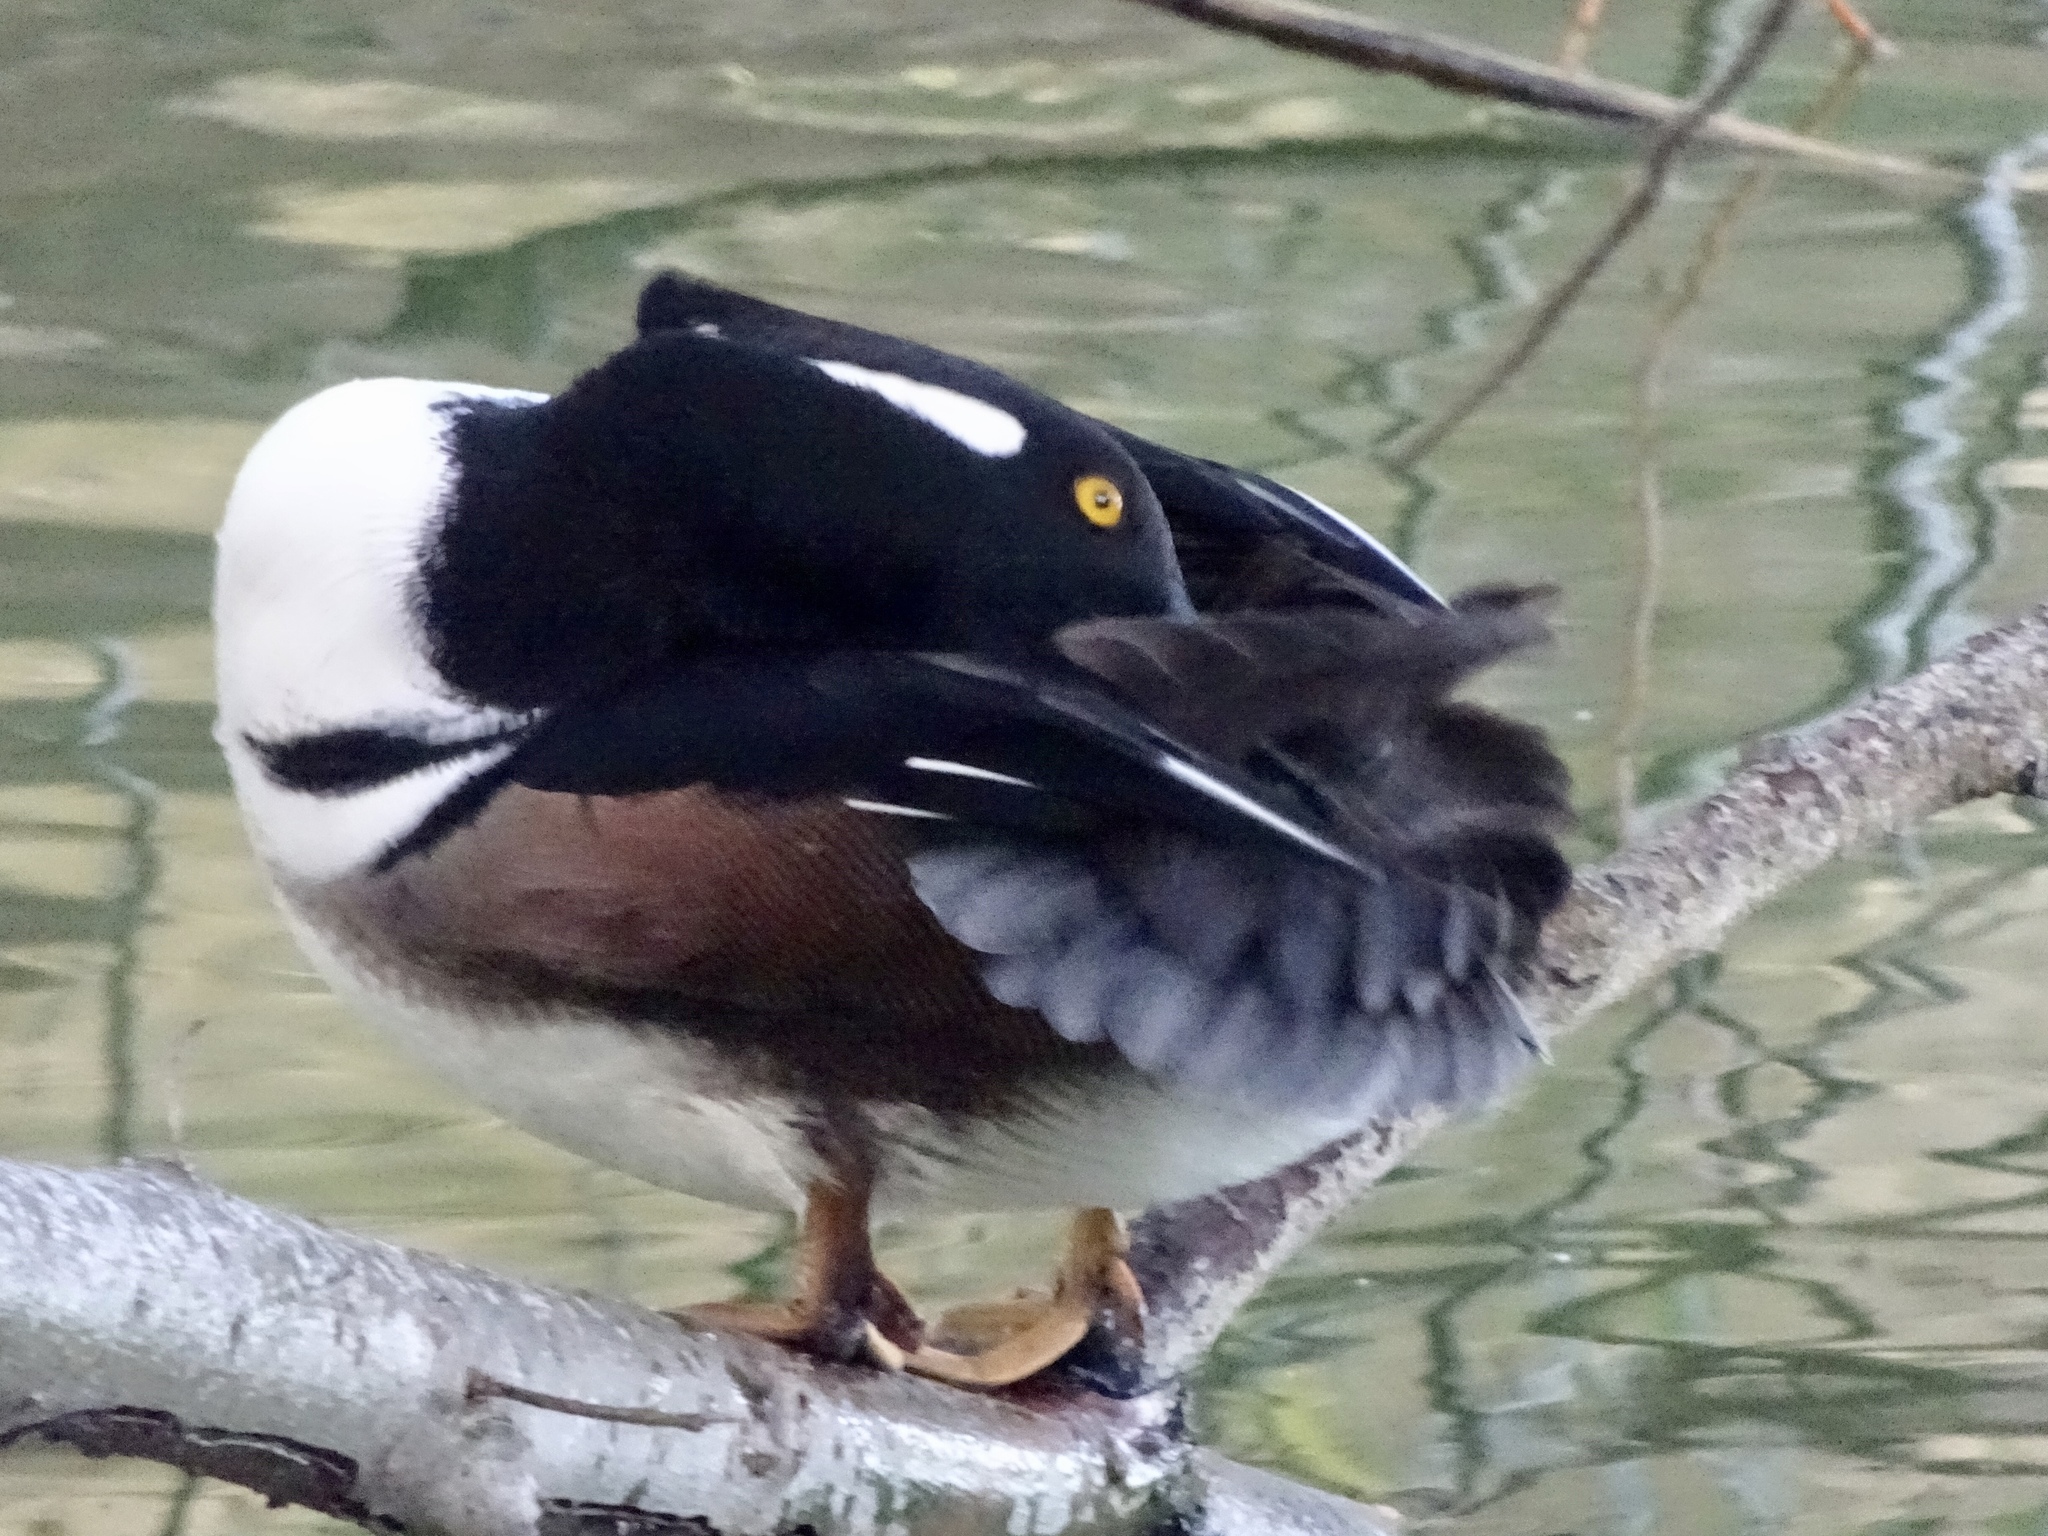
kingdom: Animalia
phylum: Chordata
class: Aves
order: Anseriformes
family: Anatidae
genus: Lophodytes
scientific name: Lophodytes cucullatus
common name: Hooded merganser
